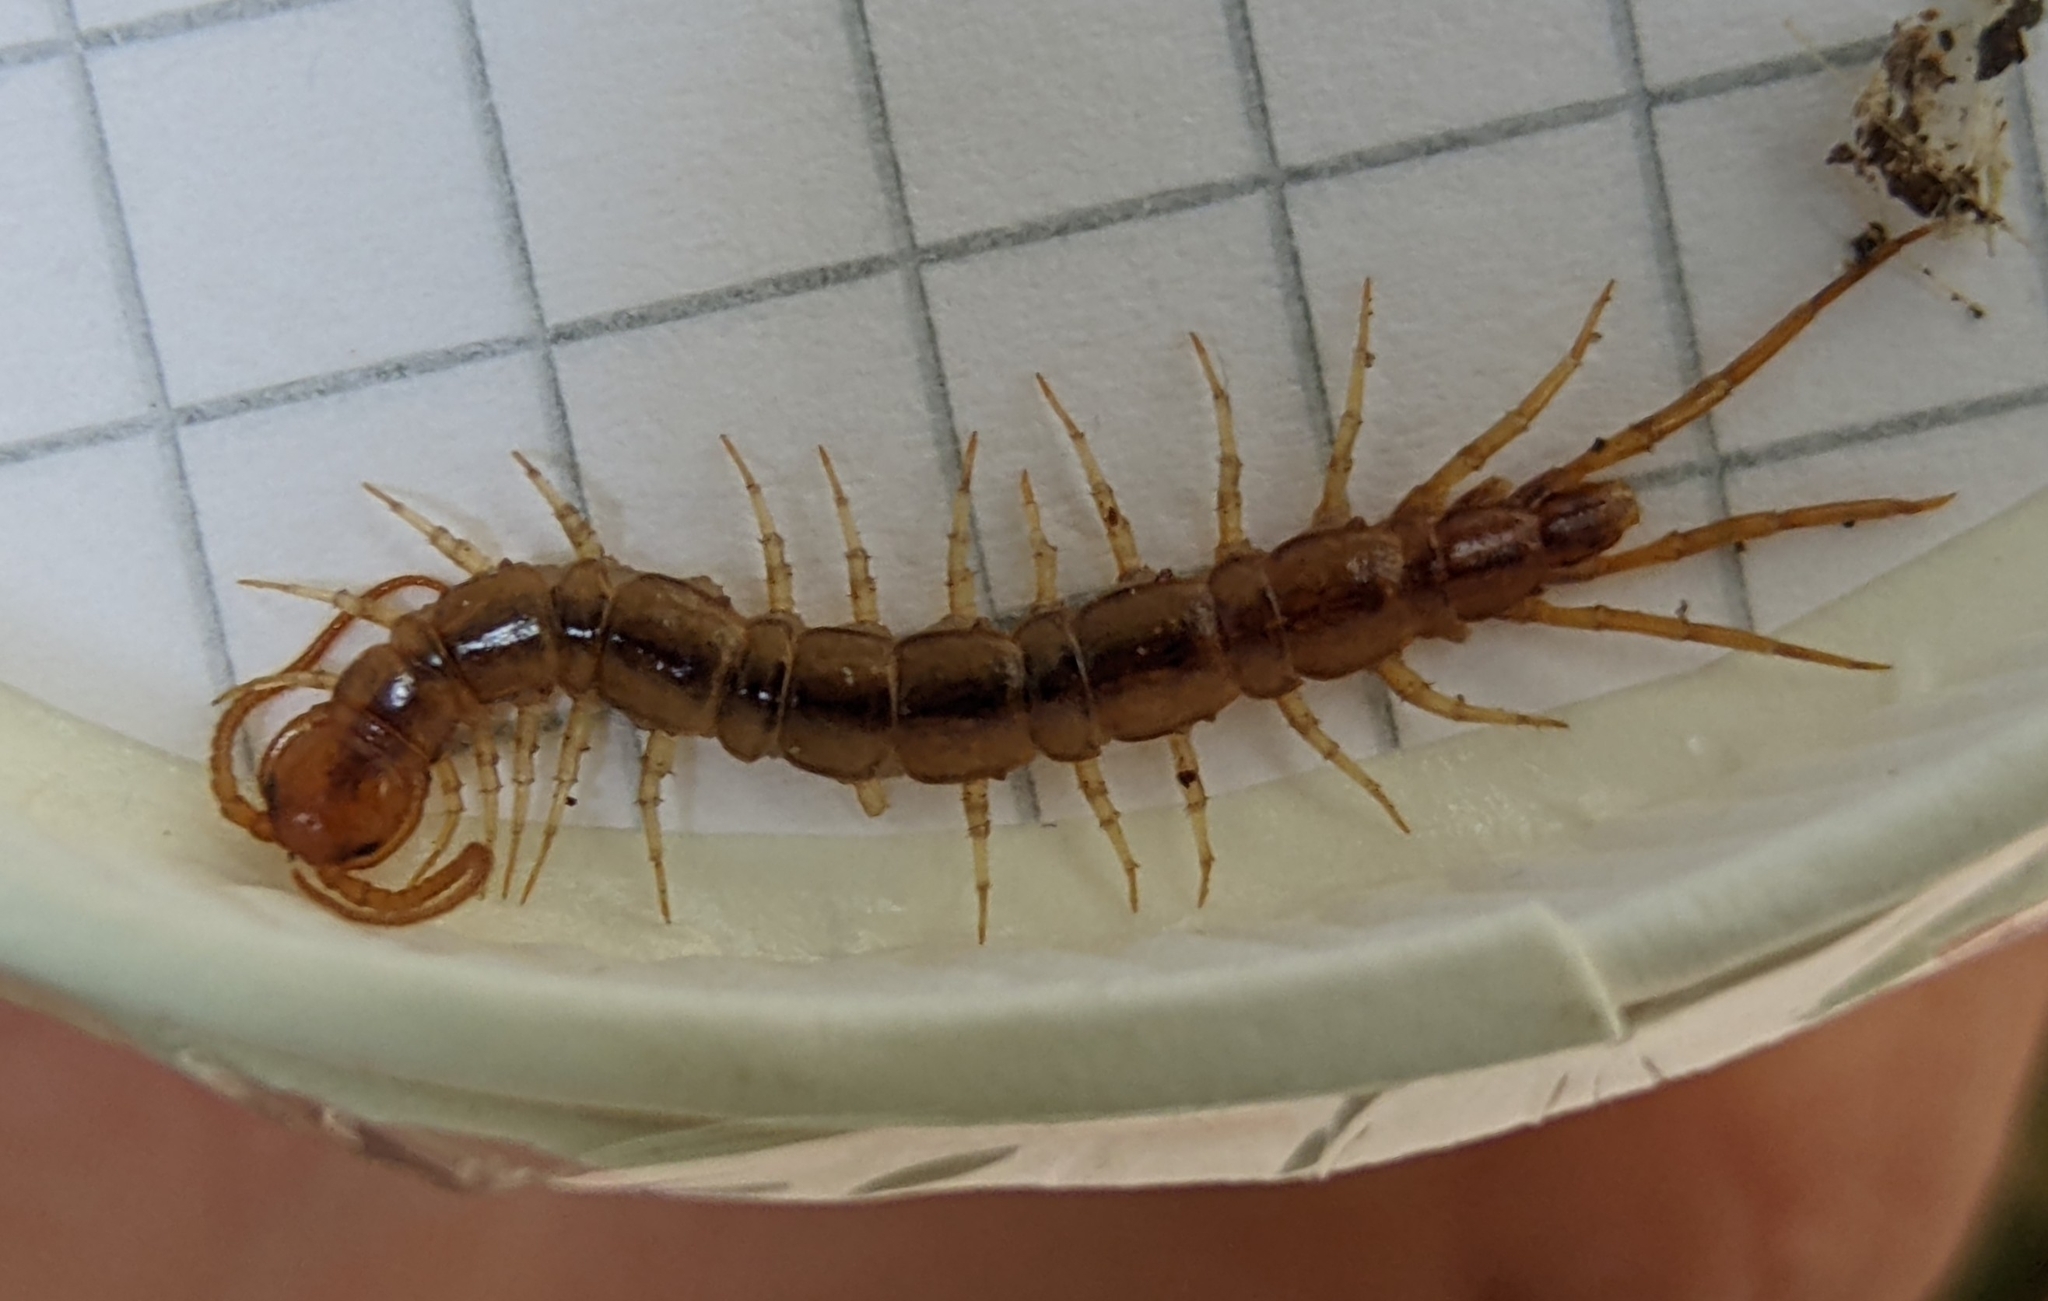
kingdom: Animalia
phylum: Arthropoda
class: Chilopoda
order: Lithobiomorpha
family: Lithobiidae
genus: Lithobius
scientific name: Lithobius melanops
